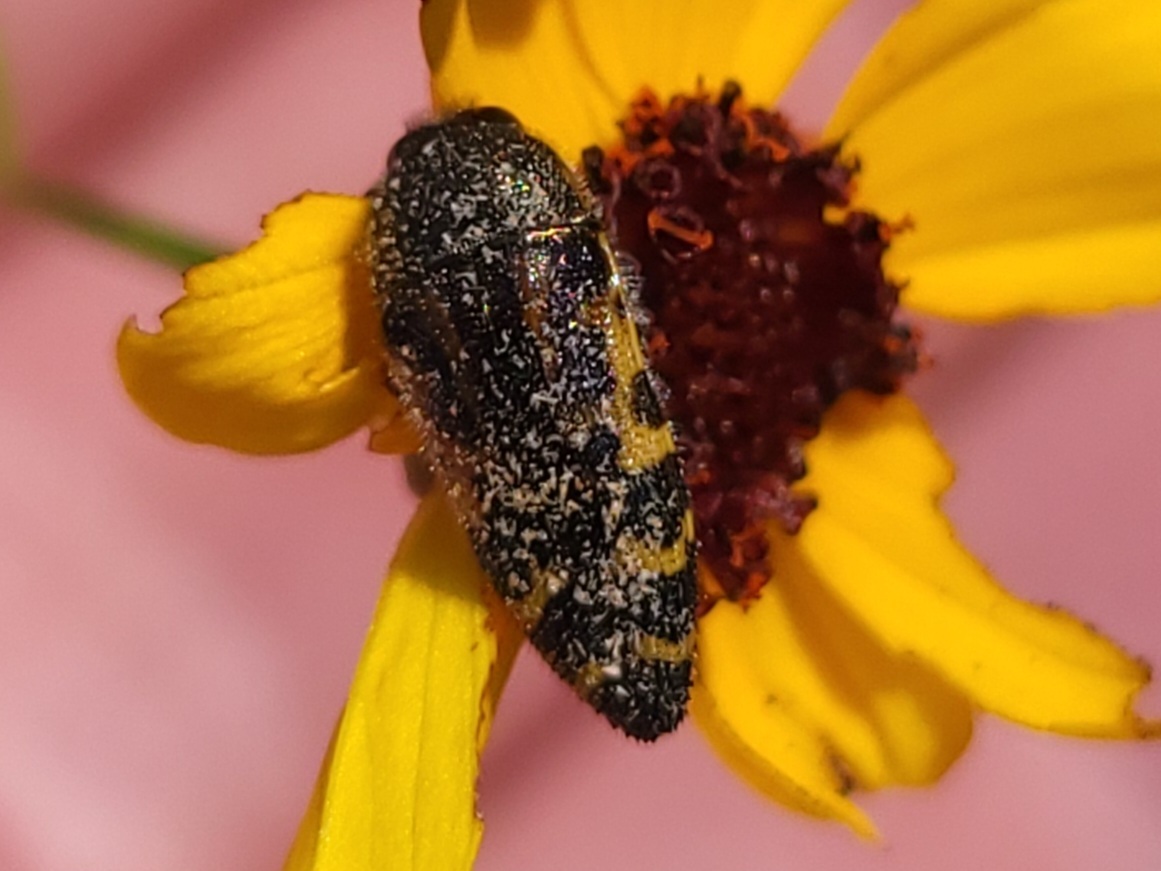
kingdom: Animalia
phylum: Arthropoda
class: Insecta
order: Coleoptera
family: Buprestidae
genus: Acmaeodera
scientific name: Acmaeodera pulchella
